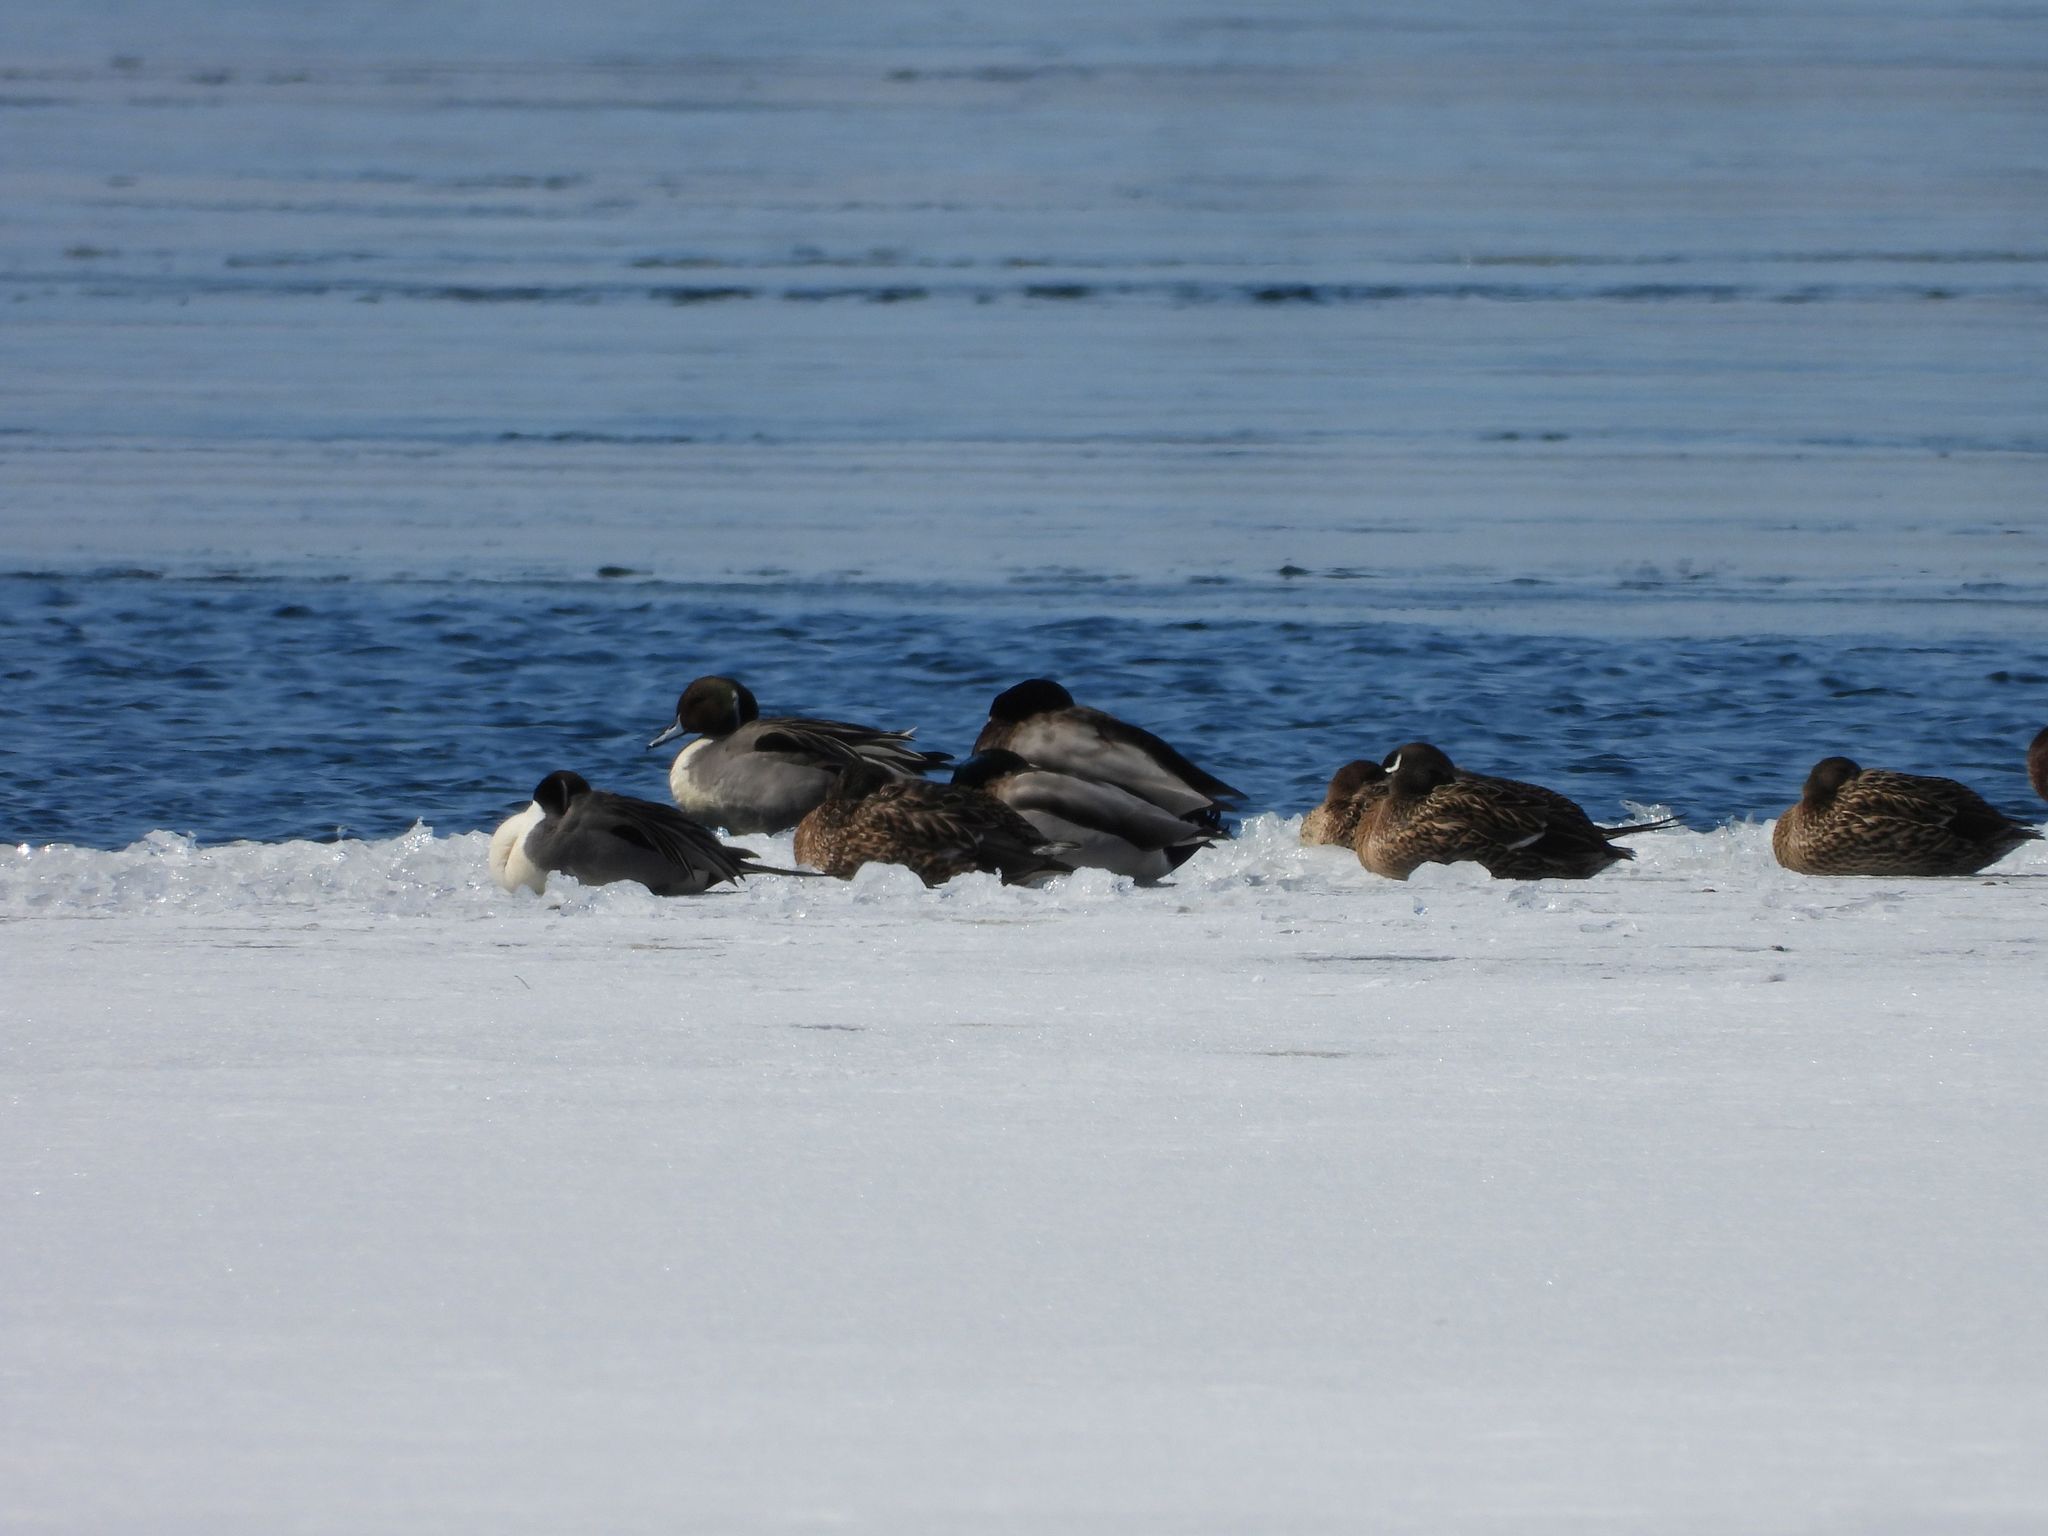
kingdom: Animalia
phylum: Chordata
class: Aves
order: Anseriformes
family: Anatidae
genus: Anas
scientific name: Anas acuta
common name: Northern pintail
